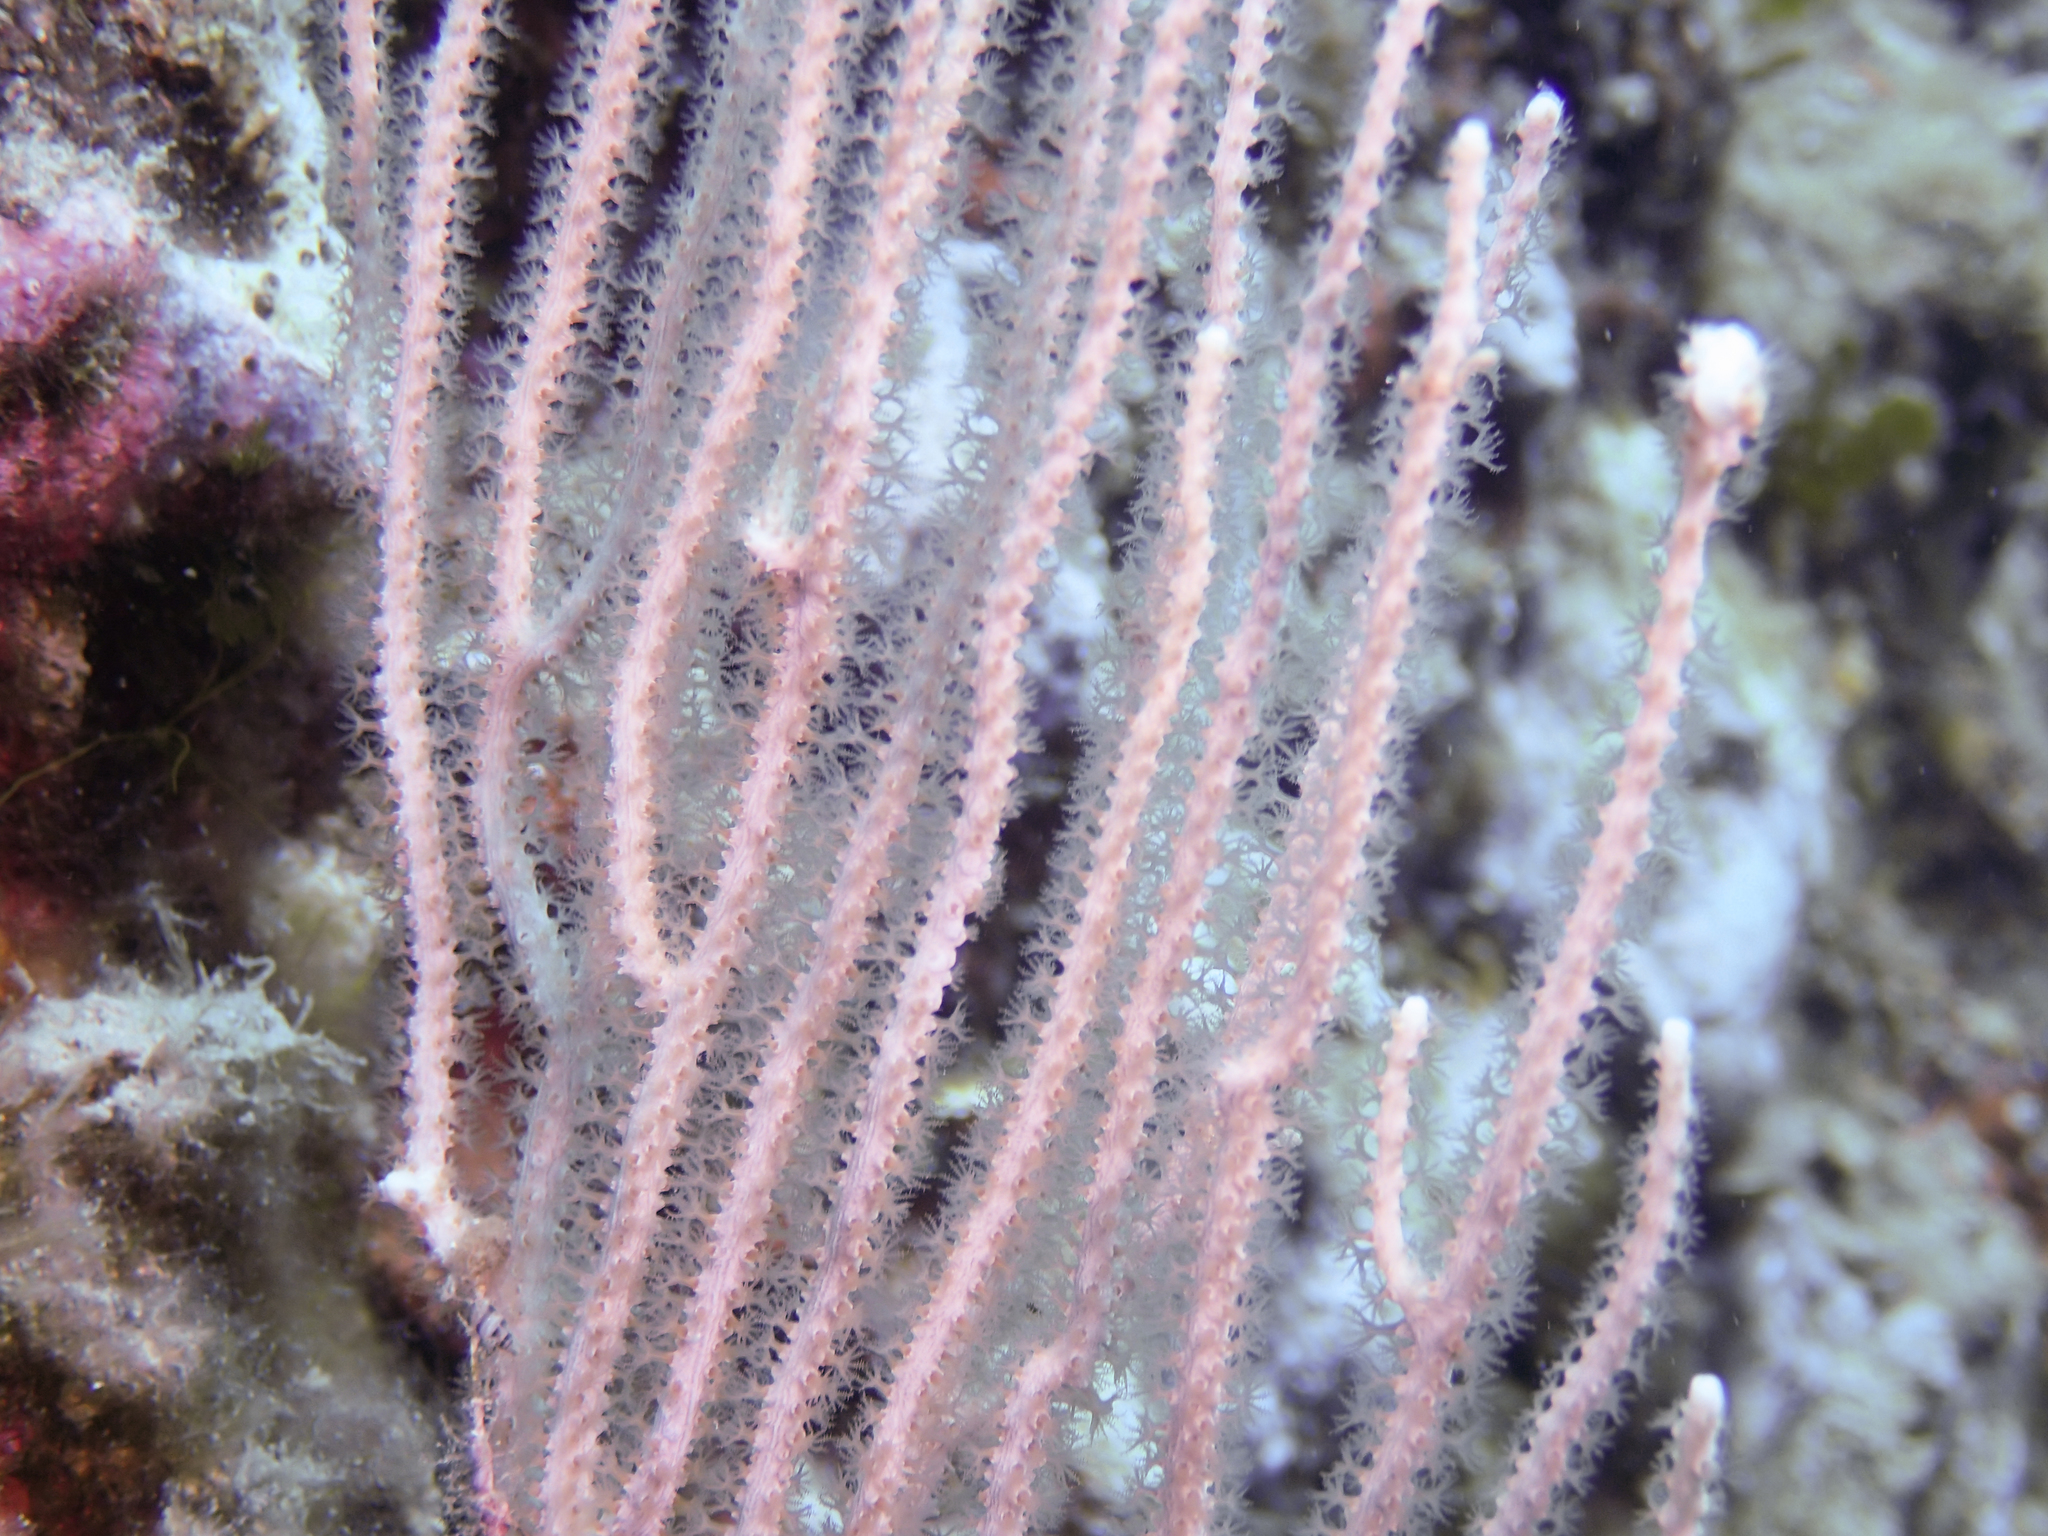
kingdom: Animalia
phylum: Cnidaria
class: Anthozoa
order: Malacalcyonacea
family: Eunicellidae
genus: Eunicella
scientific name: Eunicella singularis
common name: White horny coral
